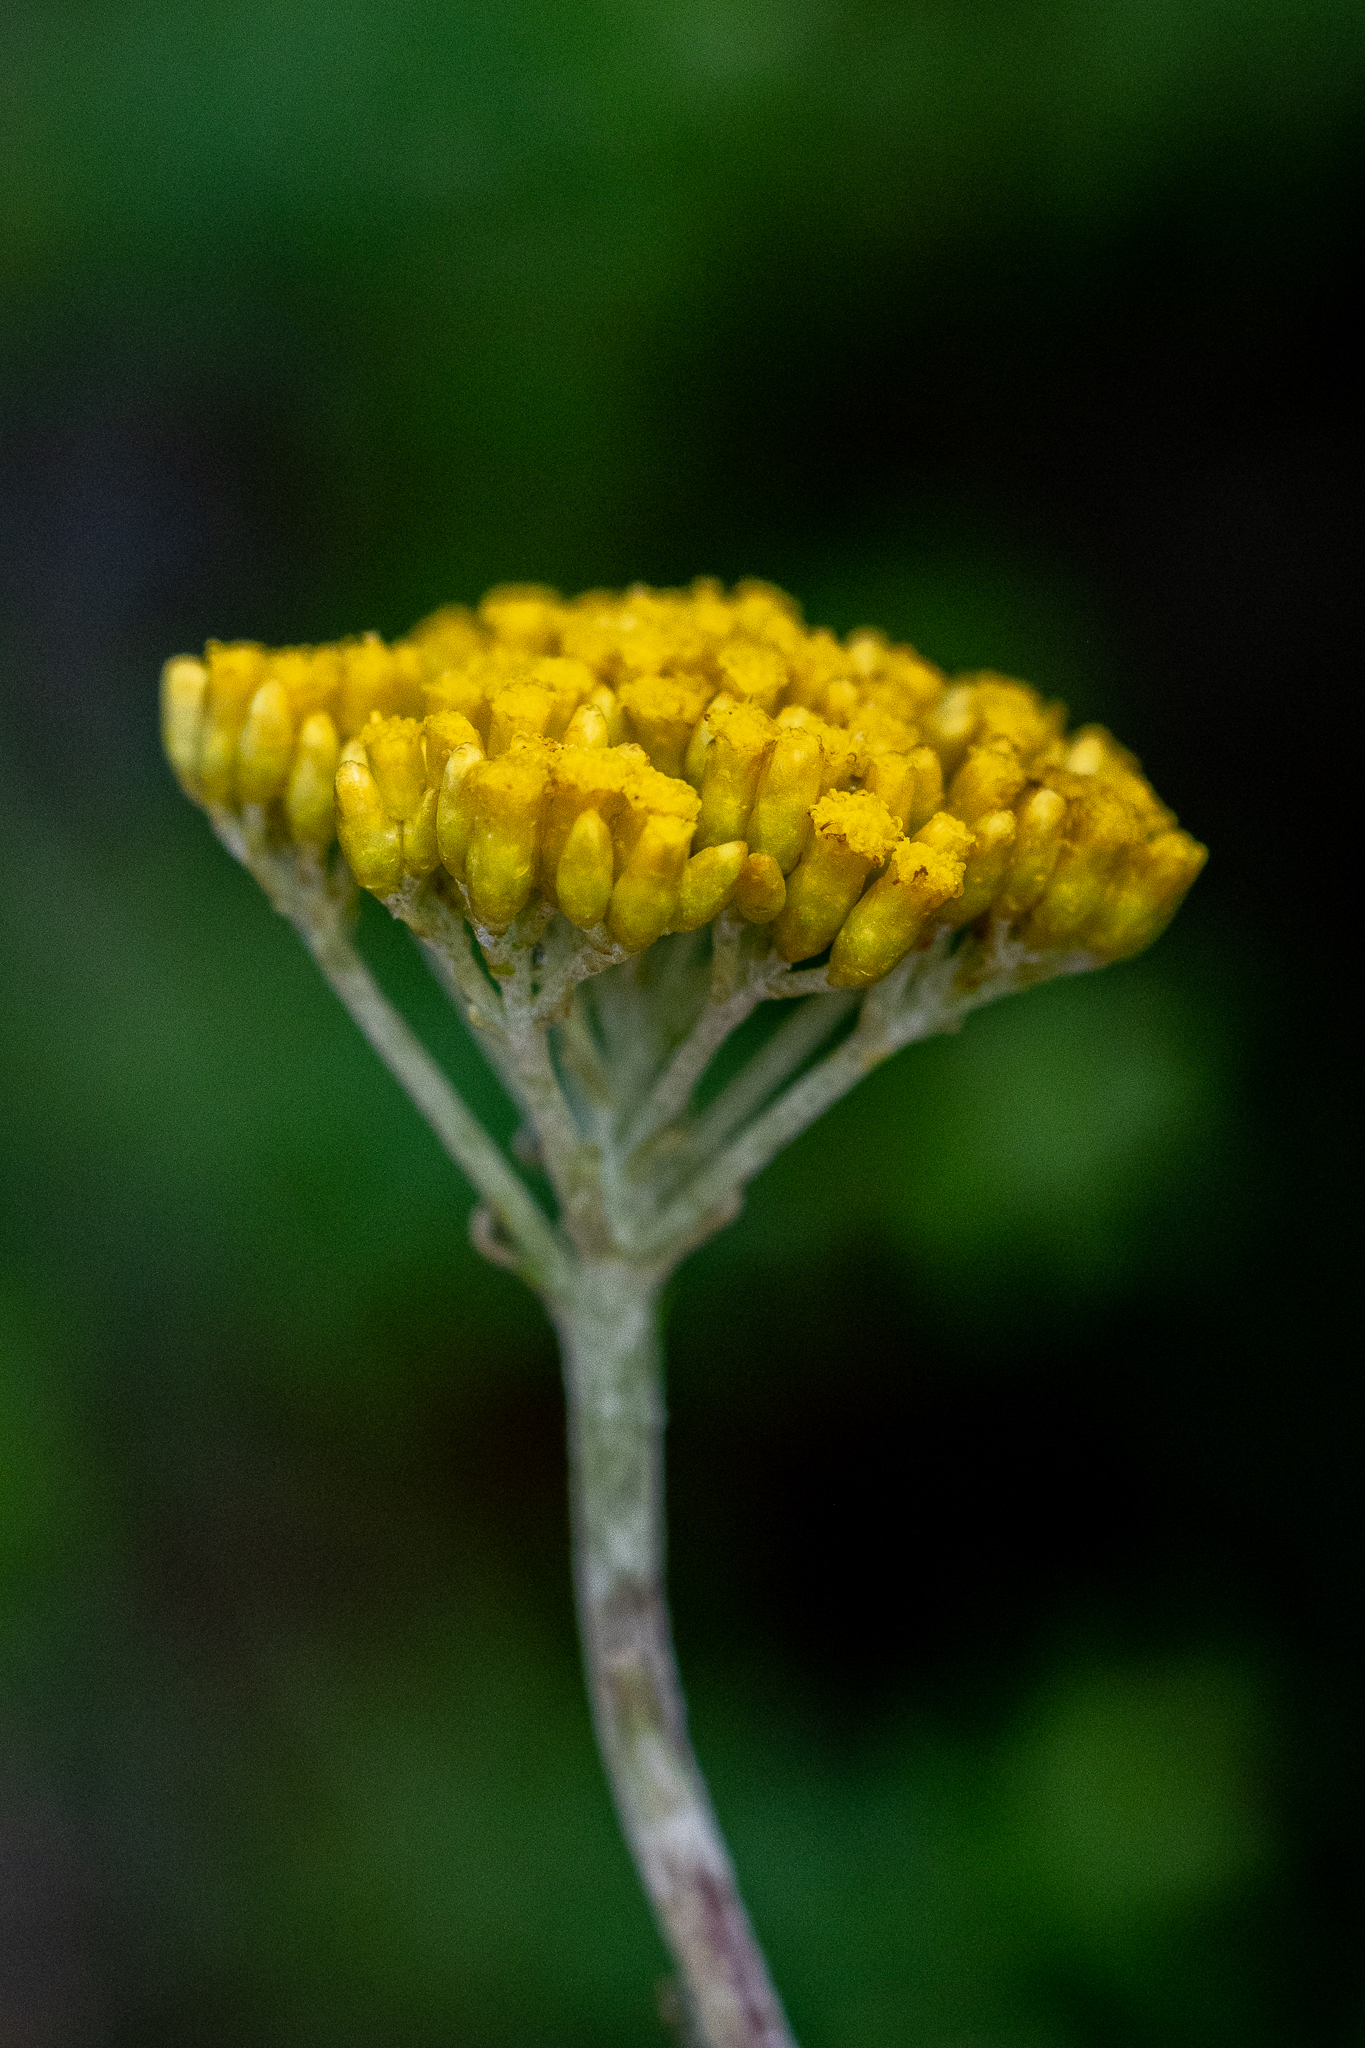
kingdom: Plantae
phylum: Tracheophyta
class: Magnoliopsida
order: Asterales
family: Asteraceae
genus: Helichrysum
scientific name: Helichrysum cymosum
